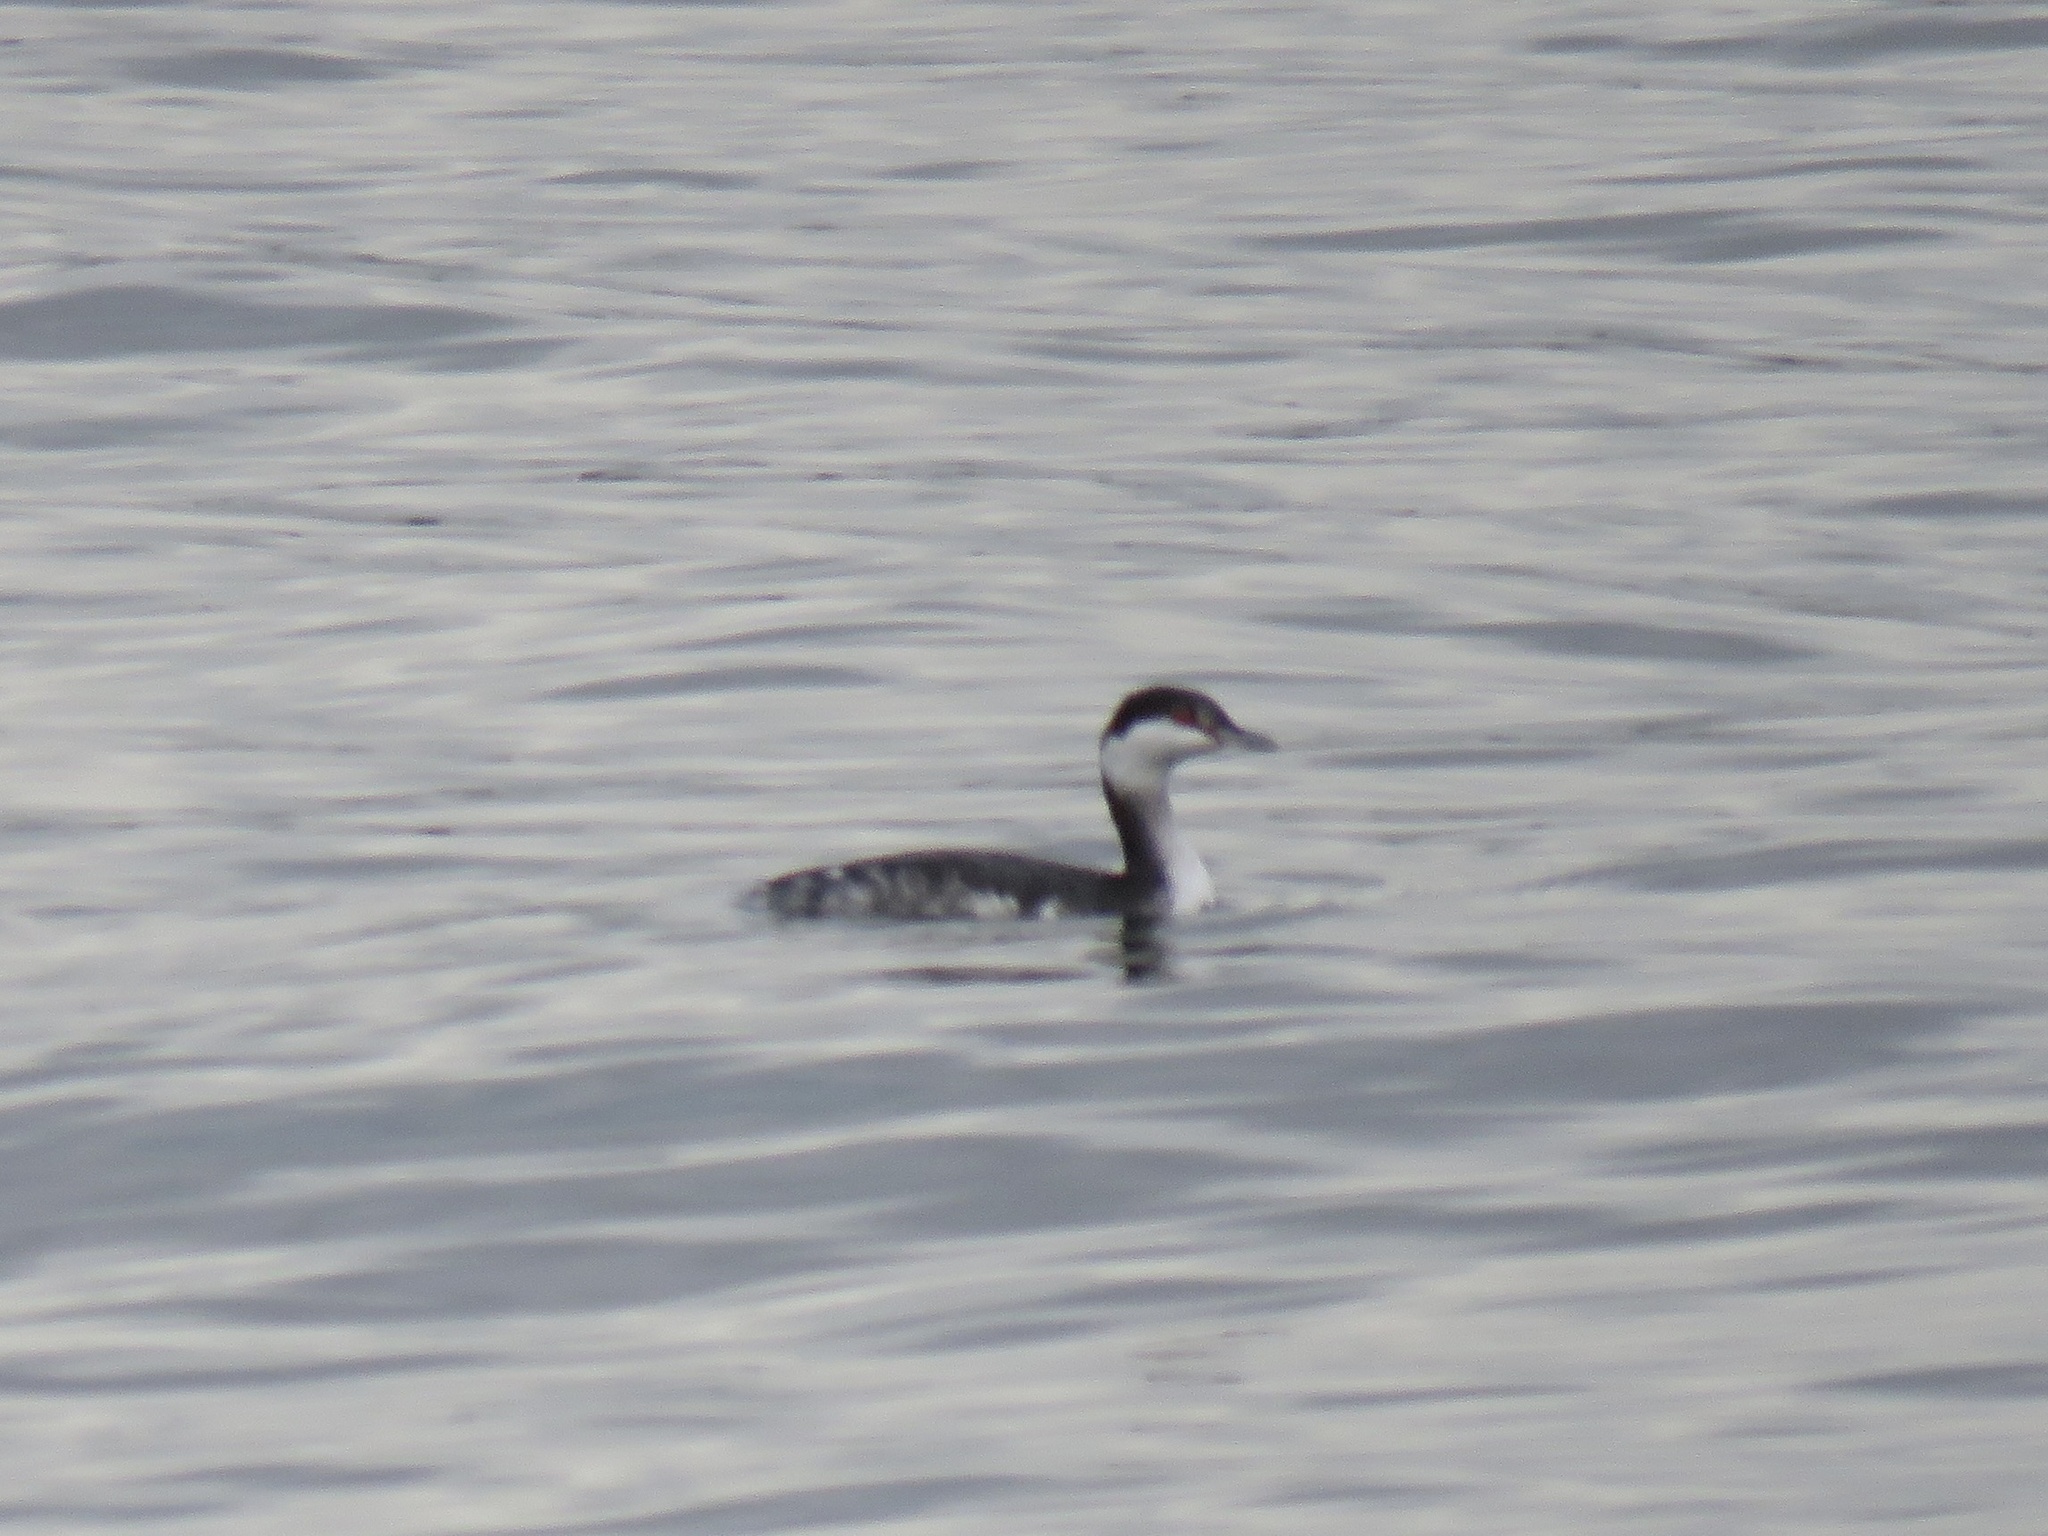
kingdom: Animalia
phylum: Chordata
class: Aves
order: Podicipediformes
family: Podicipedidae
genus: Podiceps
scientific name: Podiceps auritus
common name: Horned grebe
